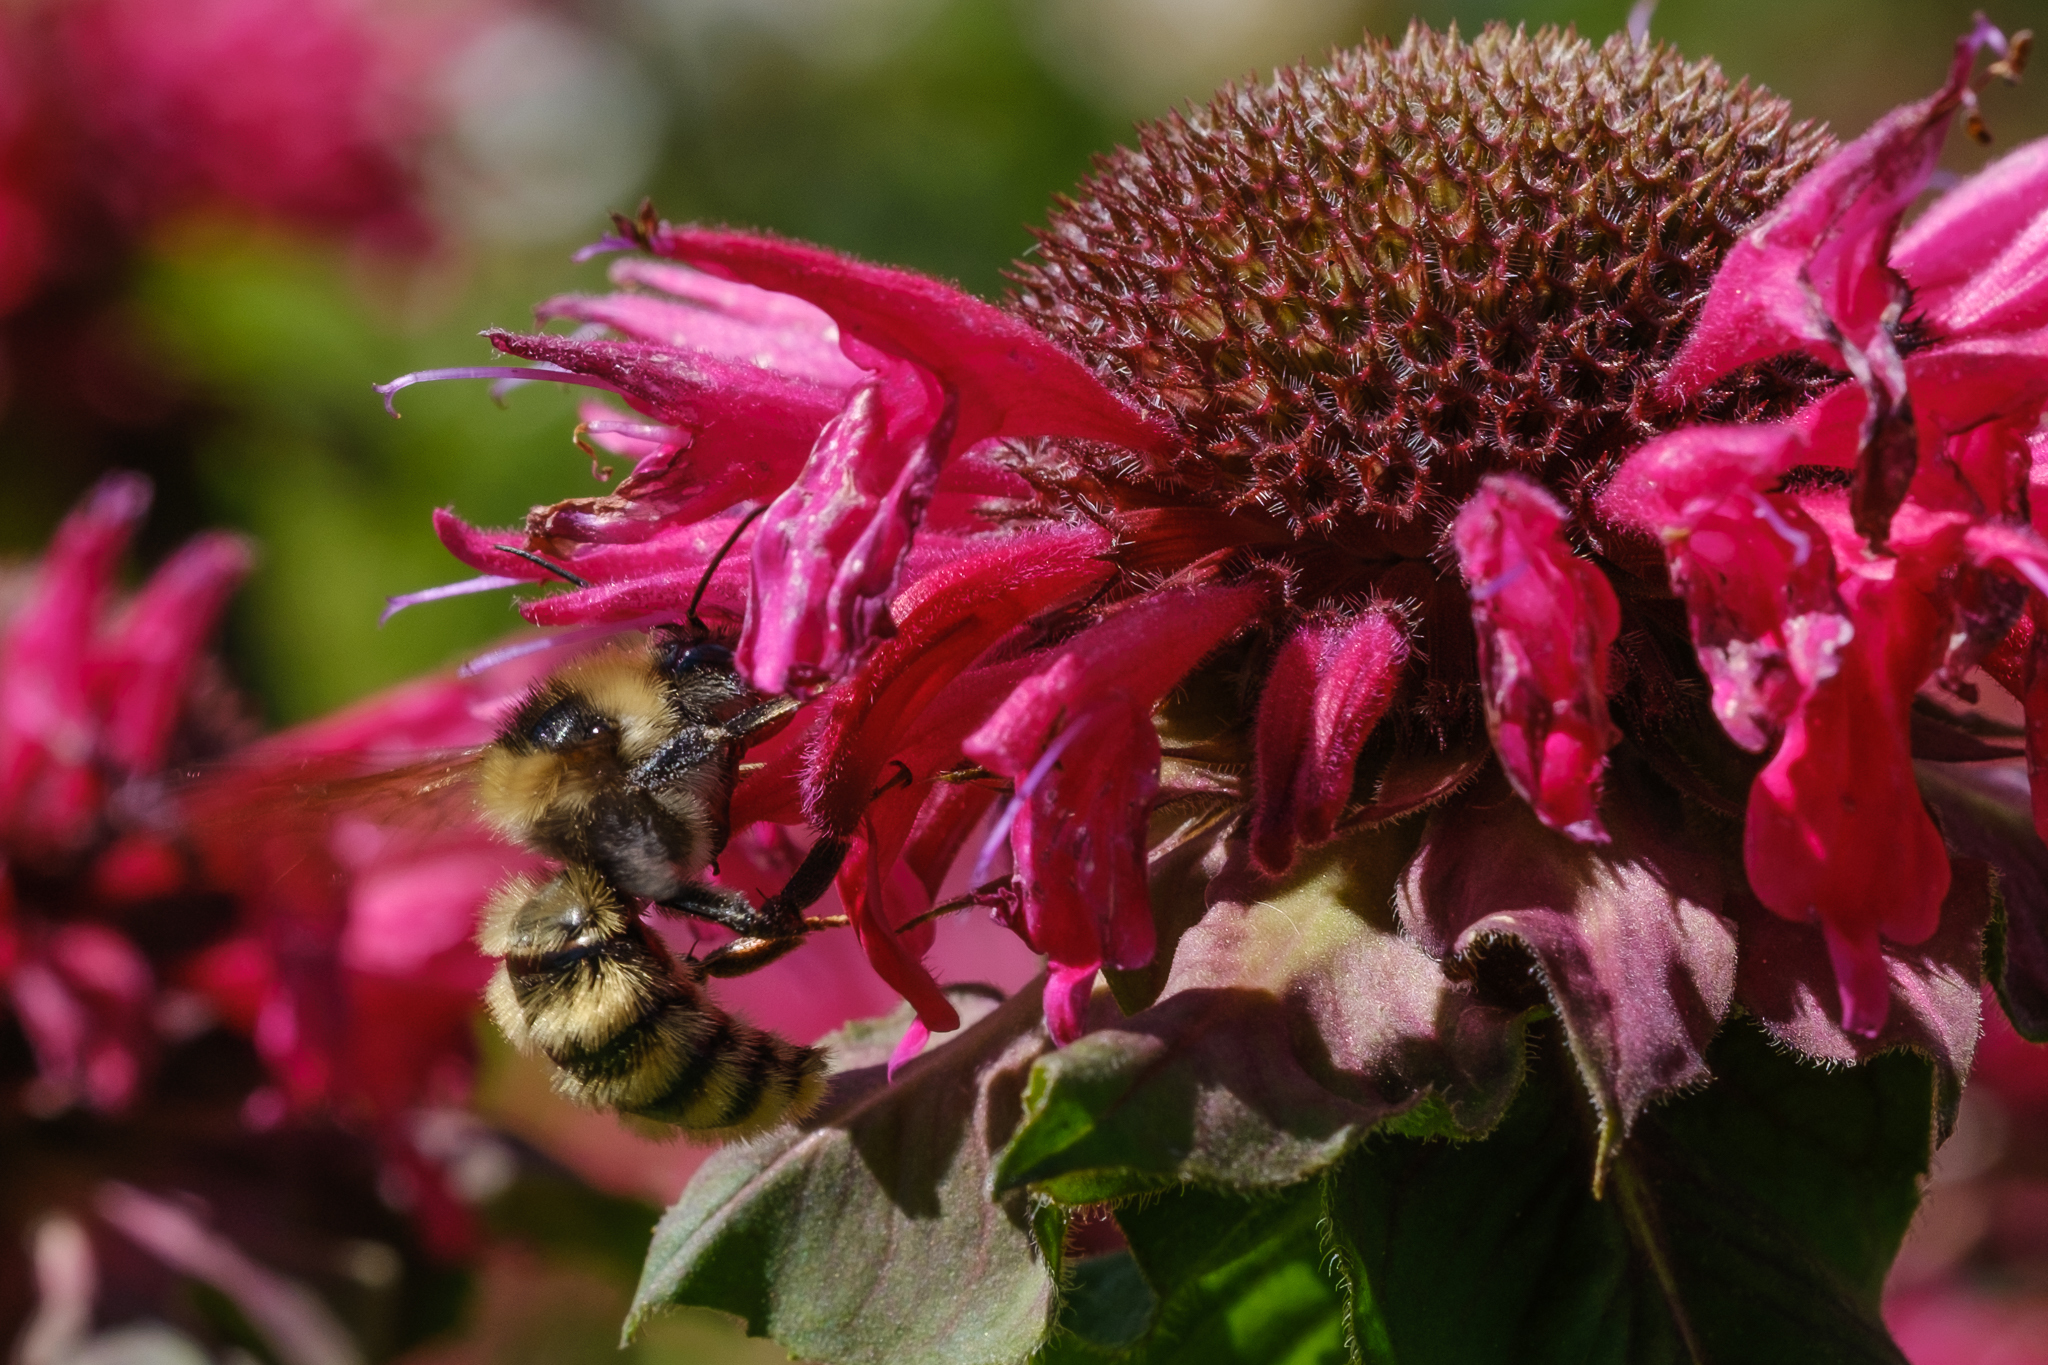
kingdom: Animalia
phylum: Arthropoda
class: Insecta
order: Hymenoptera
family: Apidae
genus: Bombus
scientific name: Bombus appositus
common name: White-shouldered bumble bee
